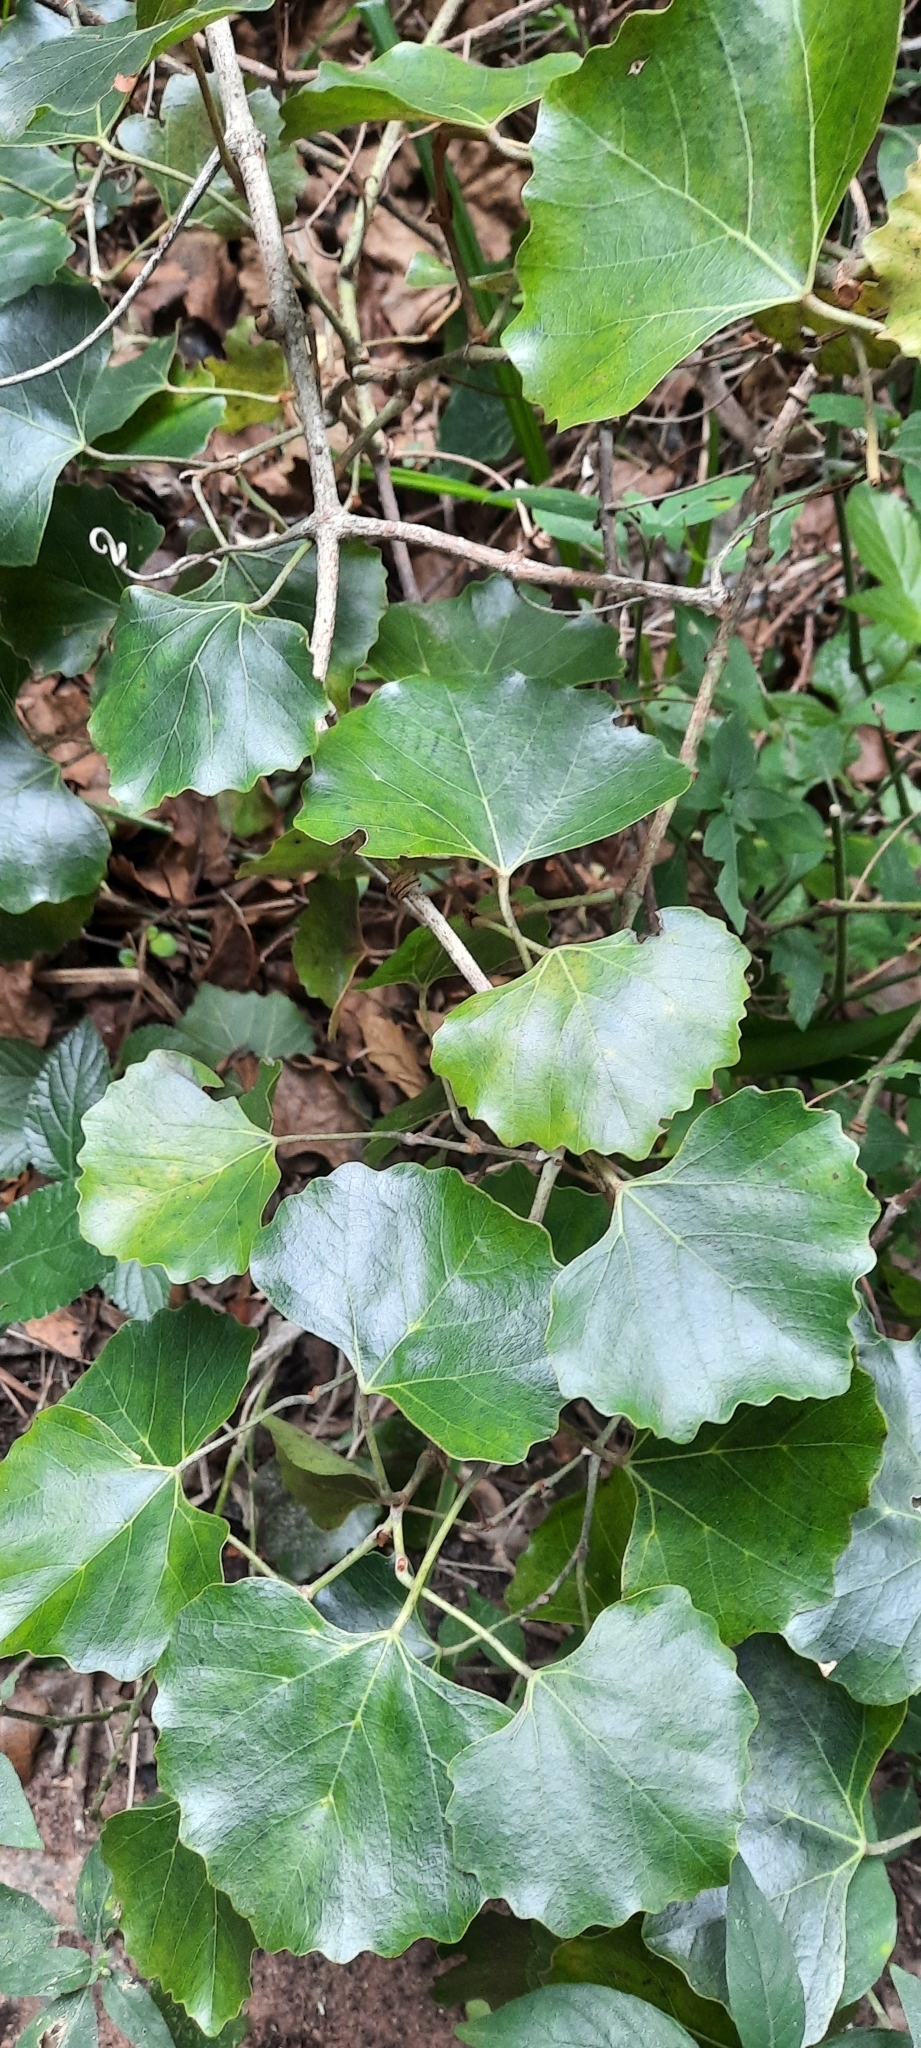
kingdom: Plantae
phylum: Tracheophyta
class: Magnoliopsida
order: Vitales
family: Vitaceae
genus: Rhoicissus
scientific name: Rhoicissus tomentosa
